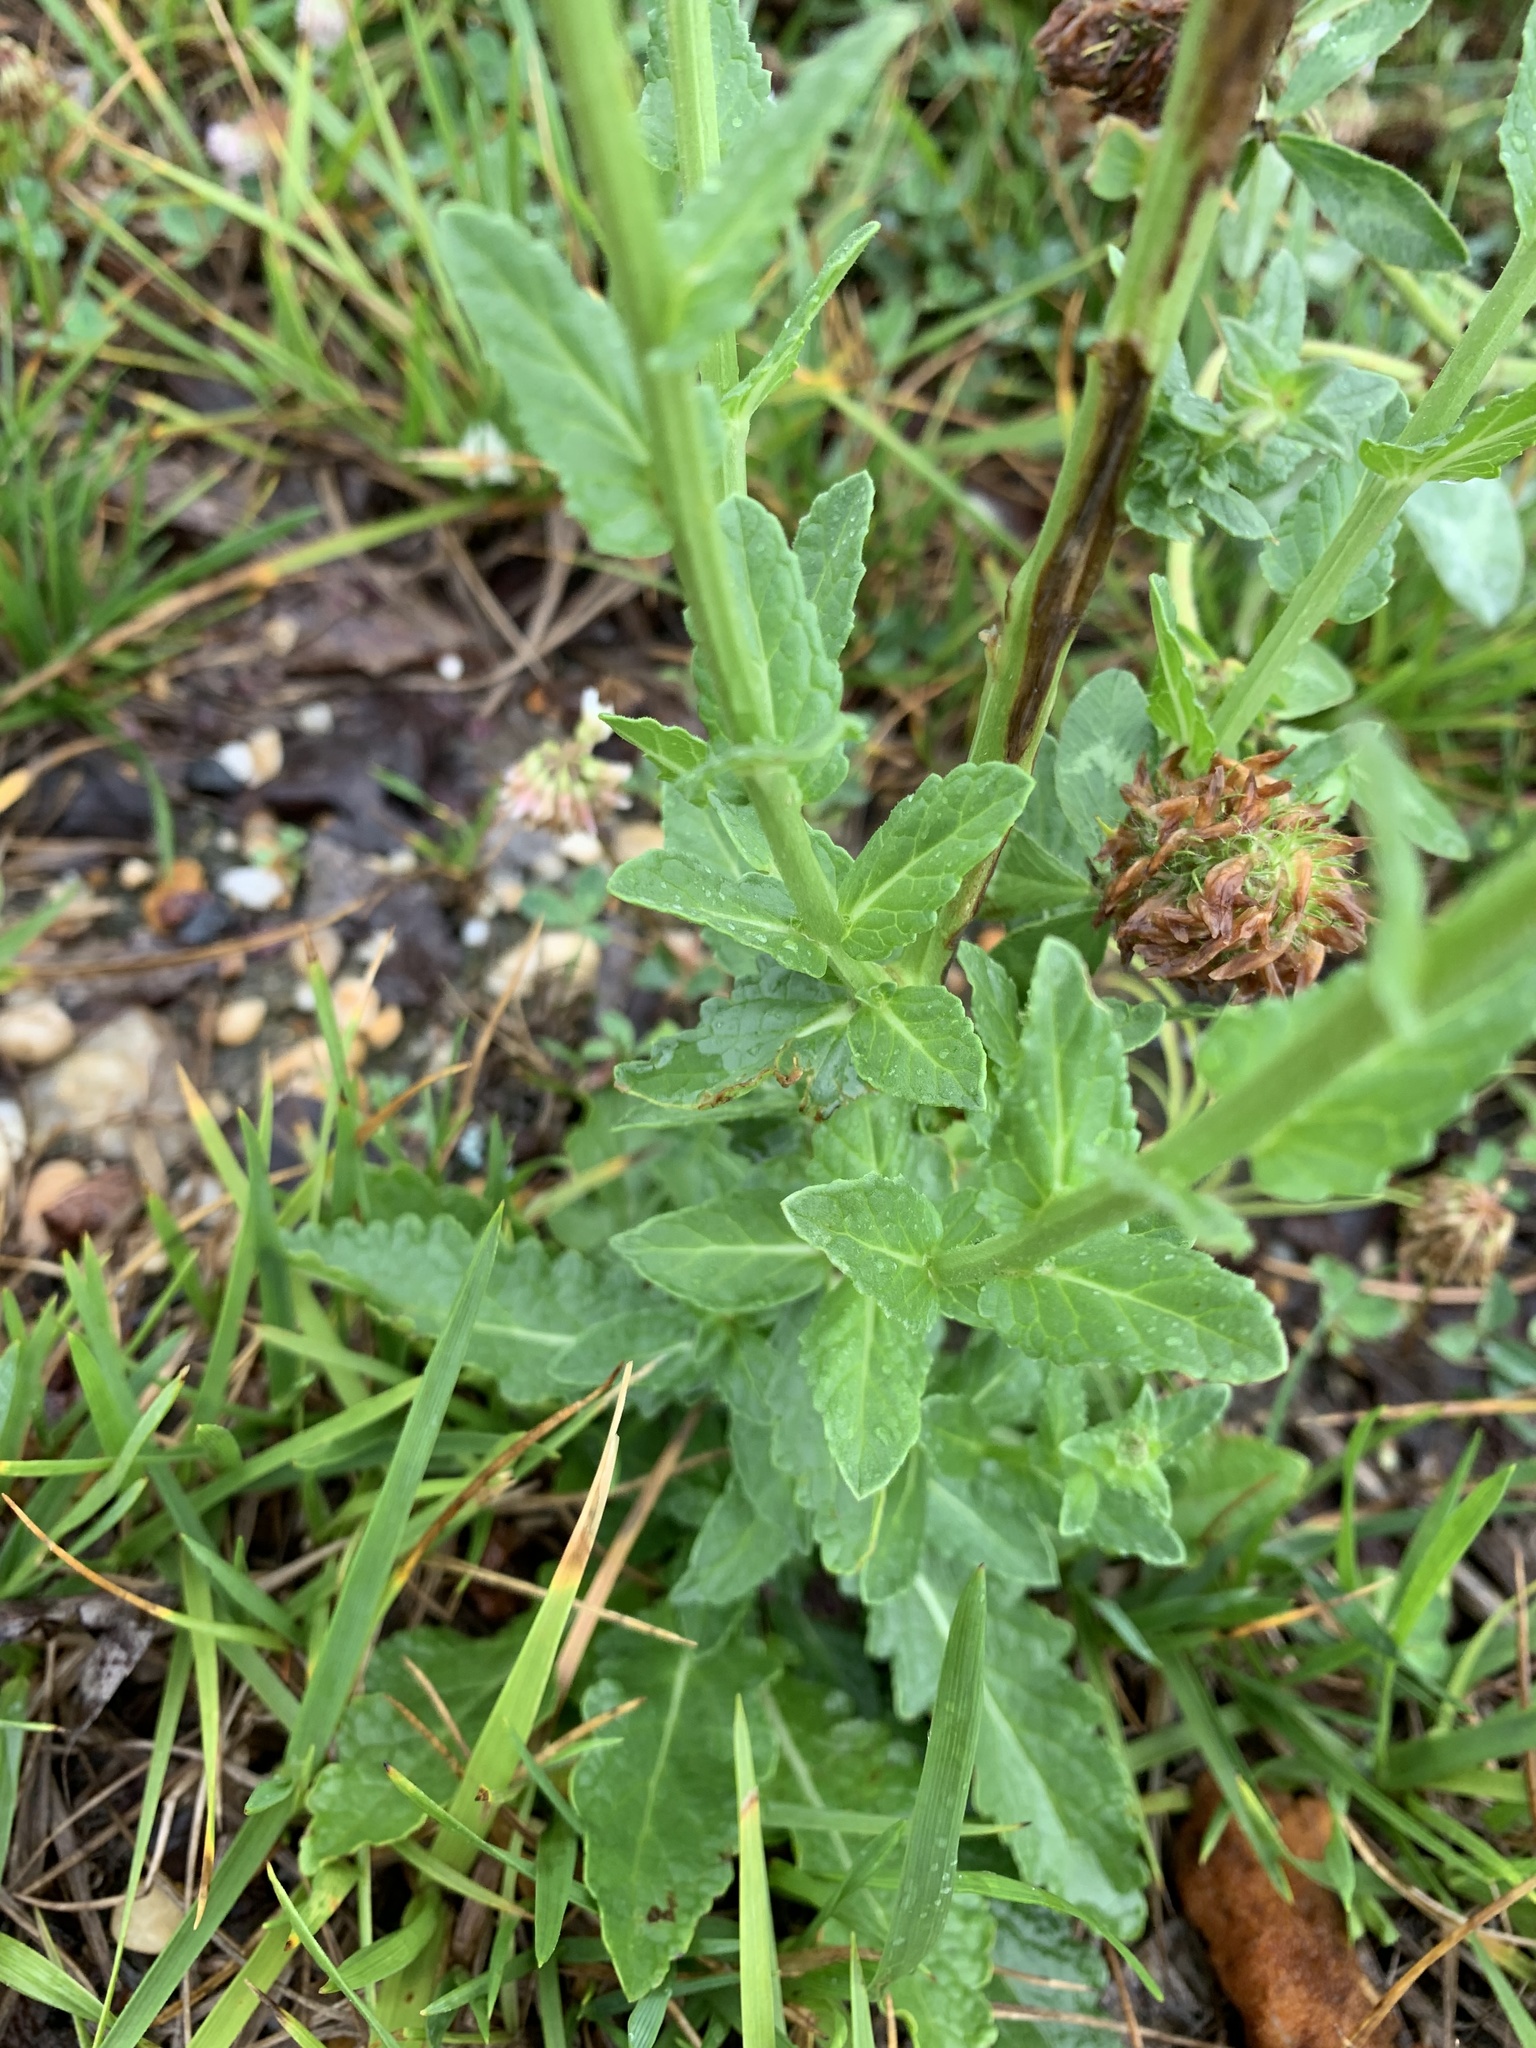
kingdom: Plantae
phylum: Tracheophyta
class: Magnoliopsida
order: Lamiales
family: Scrophulariaceae
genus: Verbascum
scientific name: Verbascum blattaria
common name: Moth mullein
